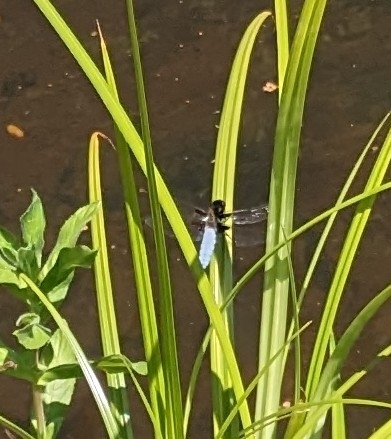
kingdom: Animalia
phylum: Arthropoda
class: Insecta
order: Odonata
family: Libellulidae
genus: Libellula
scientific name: Libellula depressa
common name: Broad-bodied chaser
